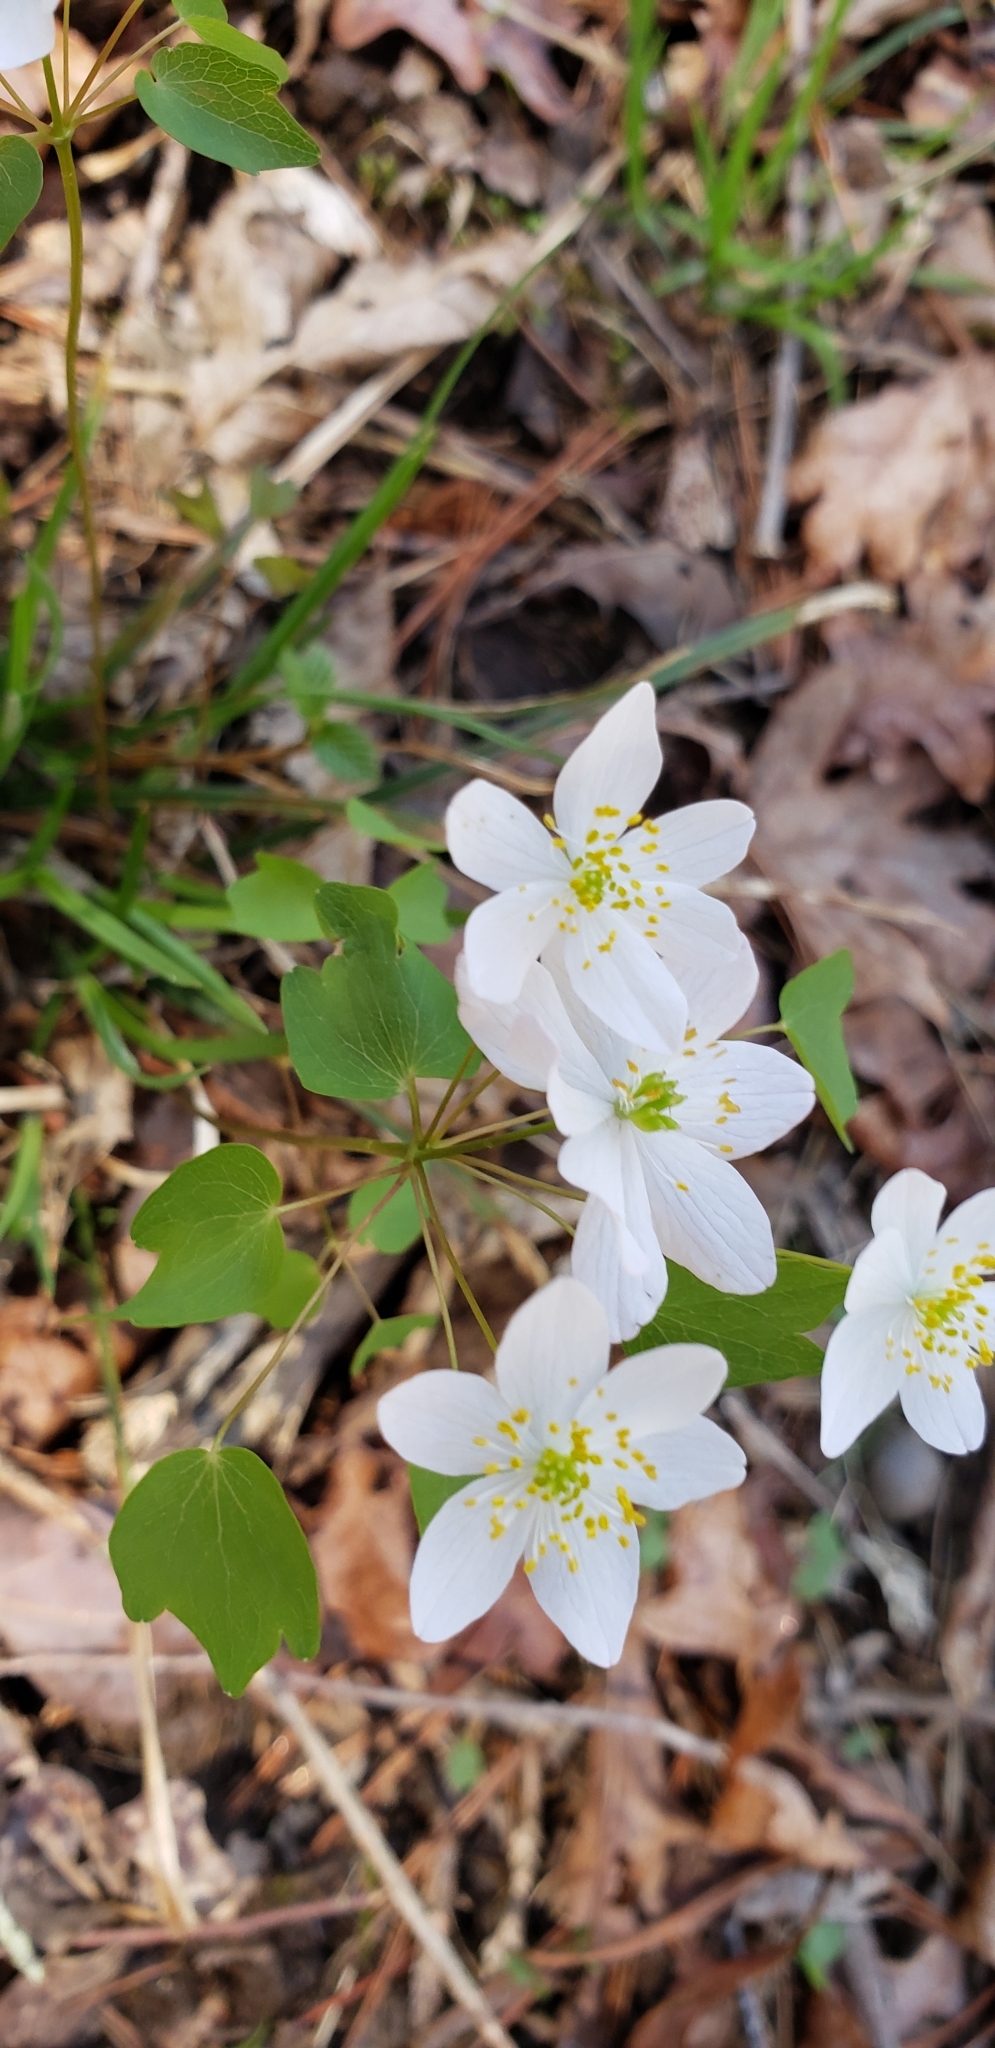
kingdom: Plantae
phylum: Tracheophyta
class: Magnoliopsida
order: Ranunculales
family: Ranunculaceae
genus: Thalictrum
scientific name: Thalictrum thalictroides
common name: Rue-anemone
